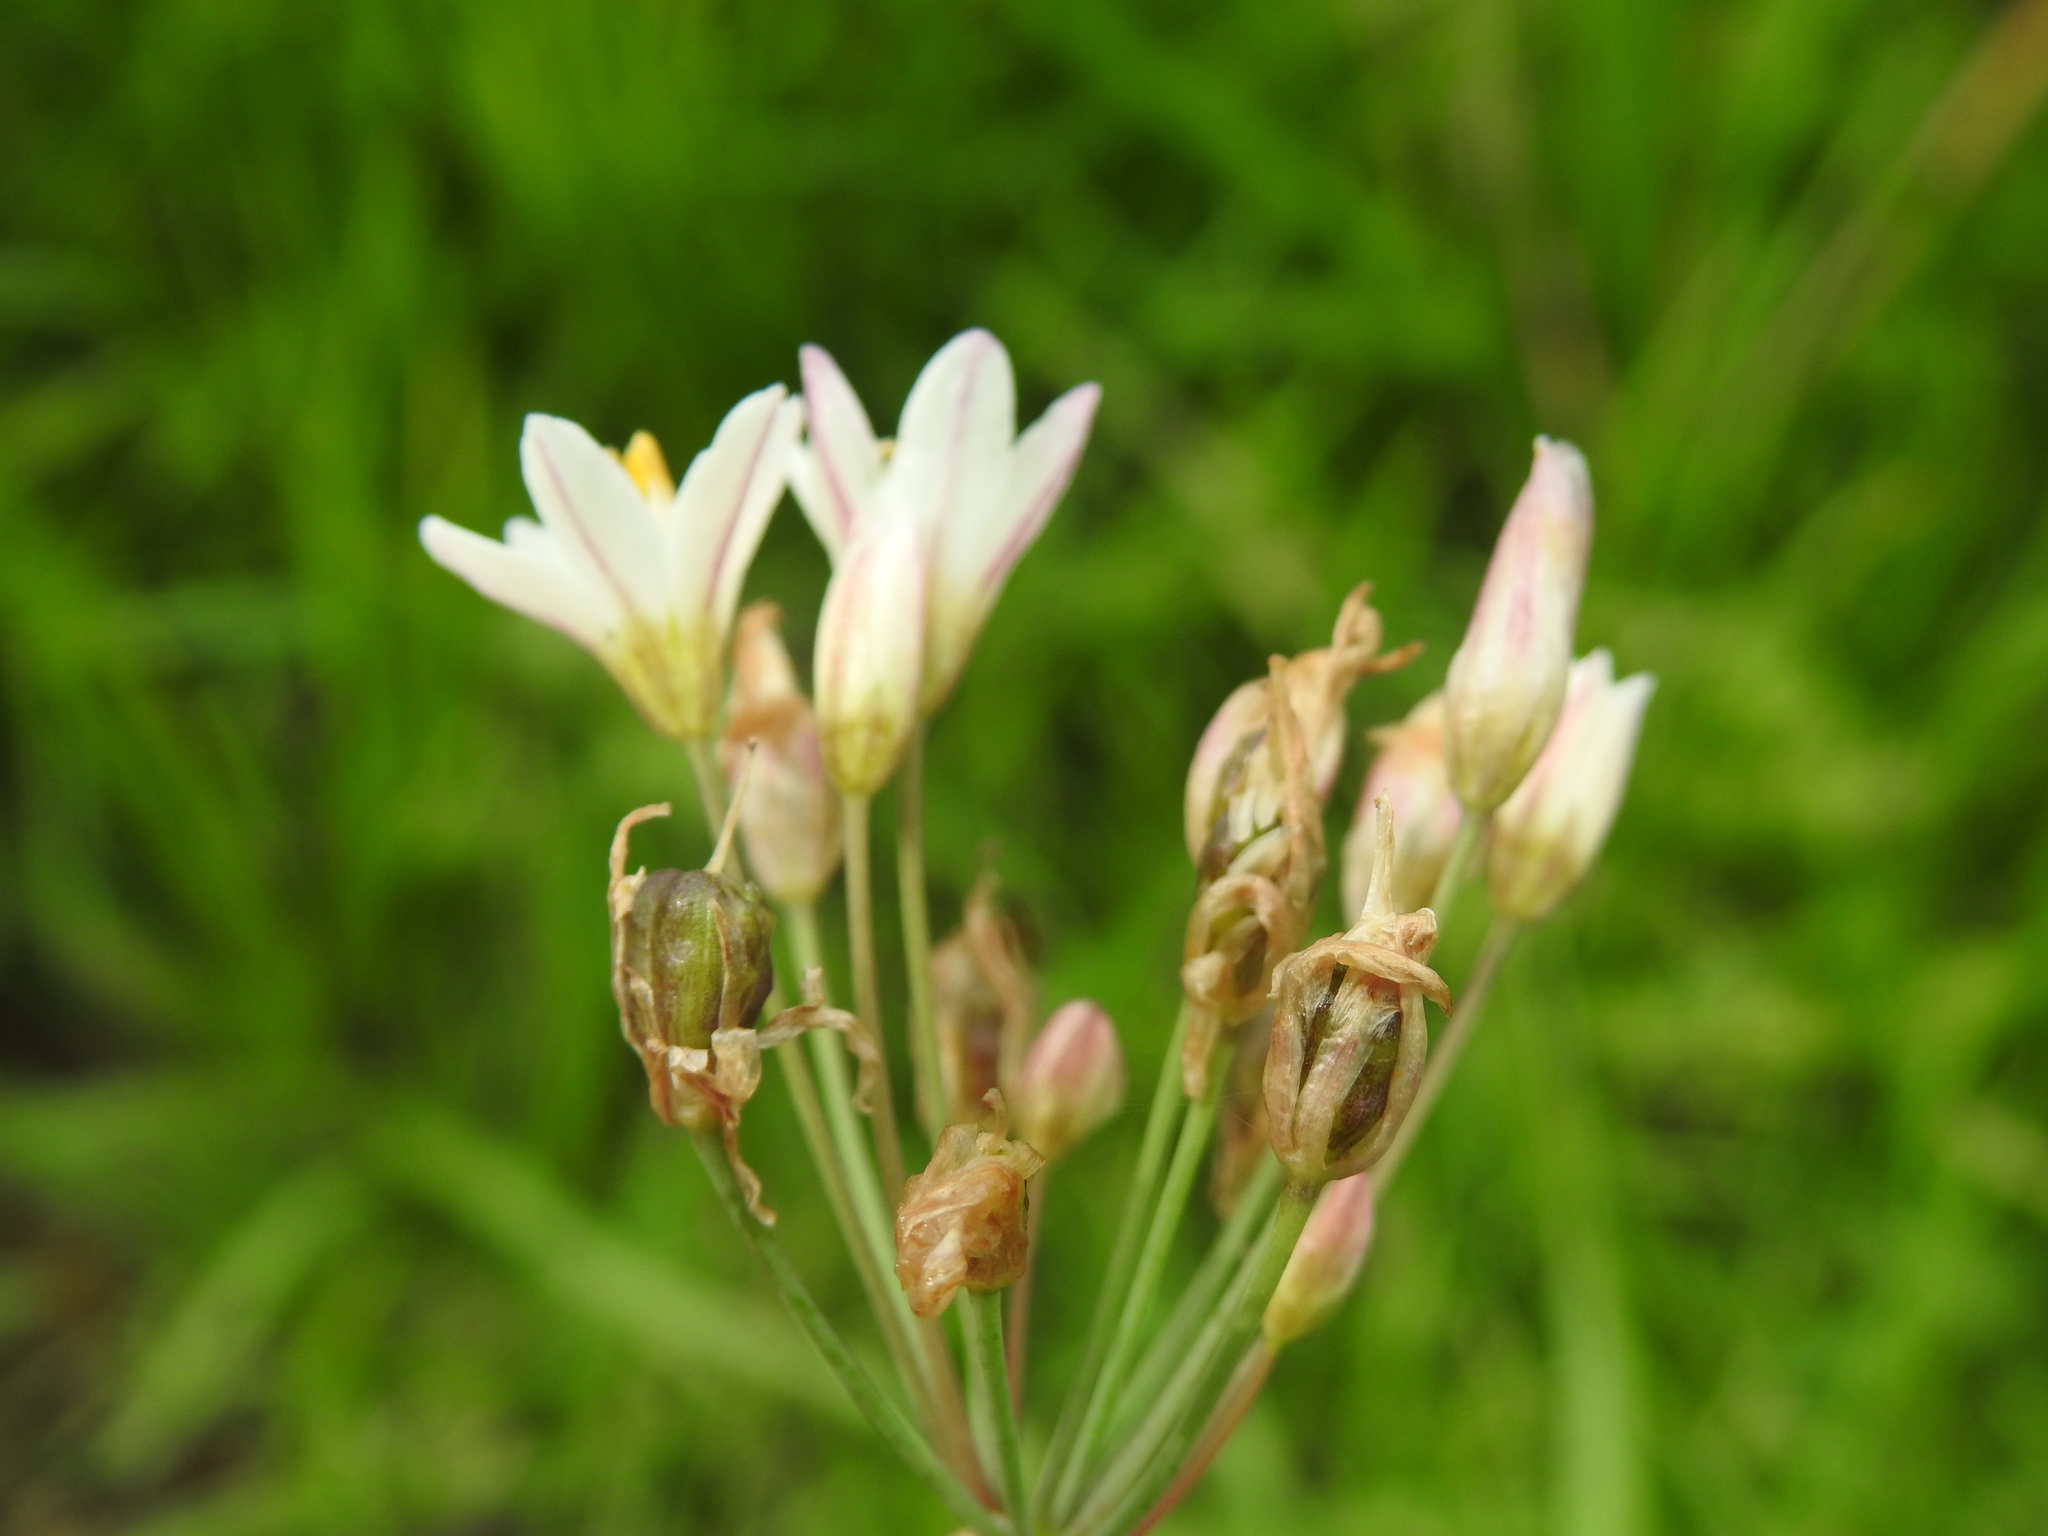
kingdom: Plantae
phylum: Tracheophyta
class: Liliopsida
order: Asparagales
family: Amaryllidaceae
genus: Nothoscordum
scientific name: Nothoscordum gracile
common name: Slender false garlic
